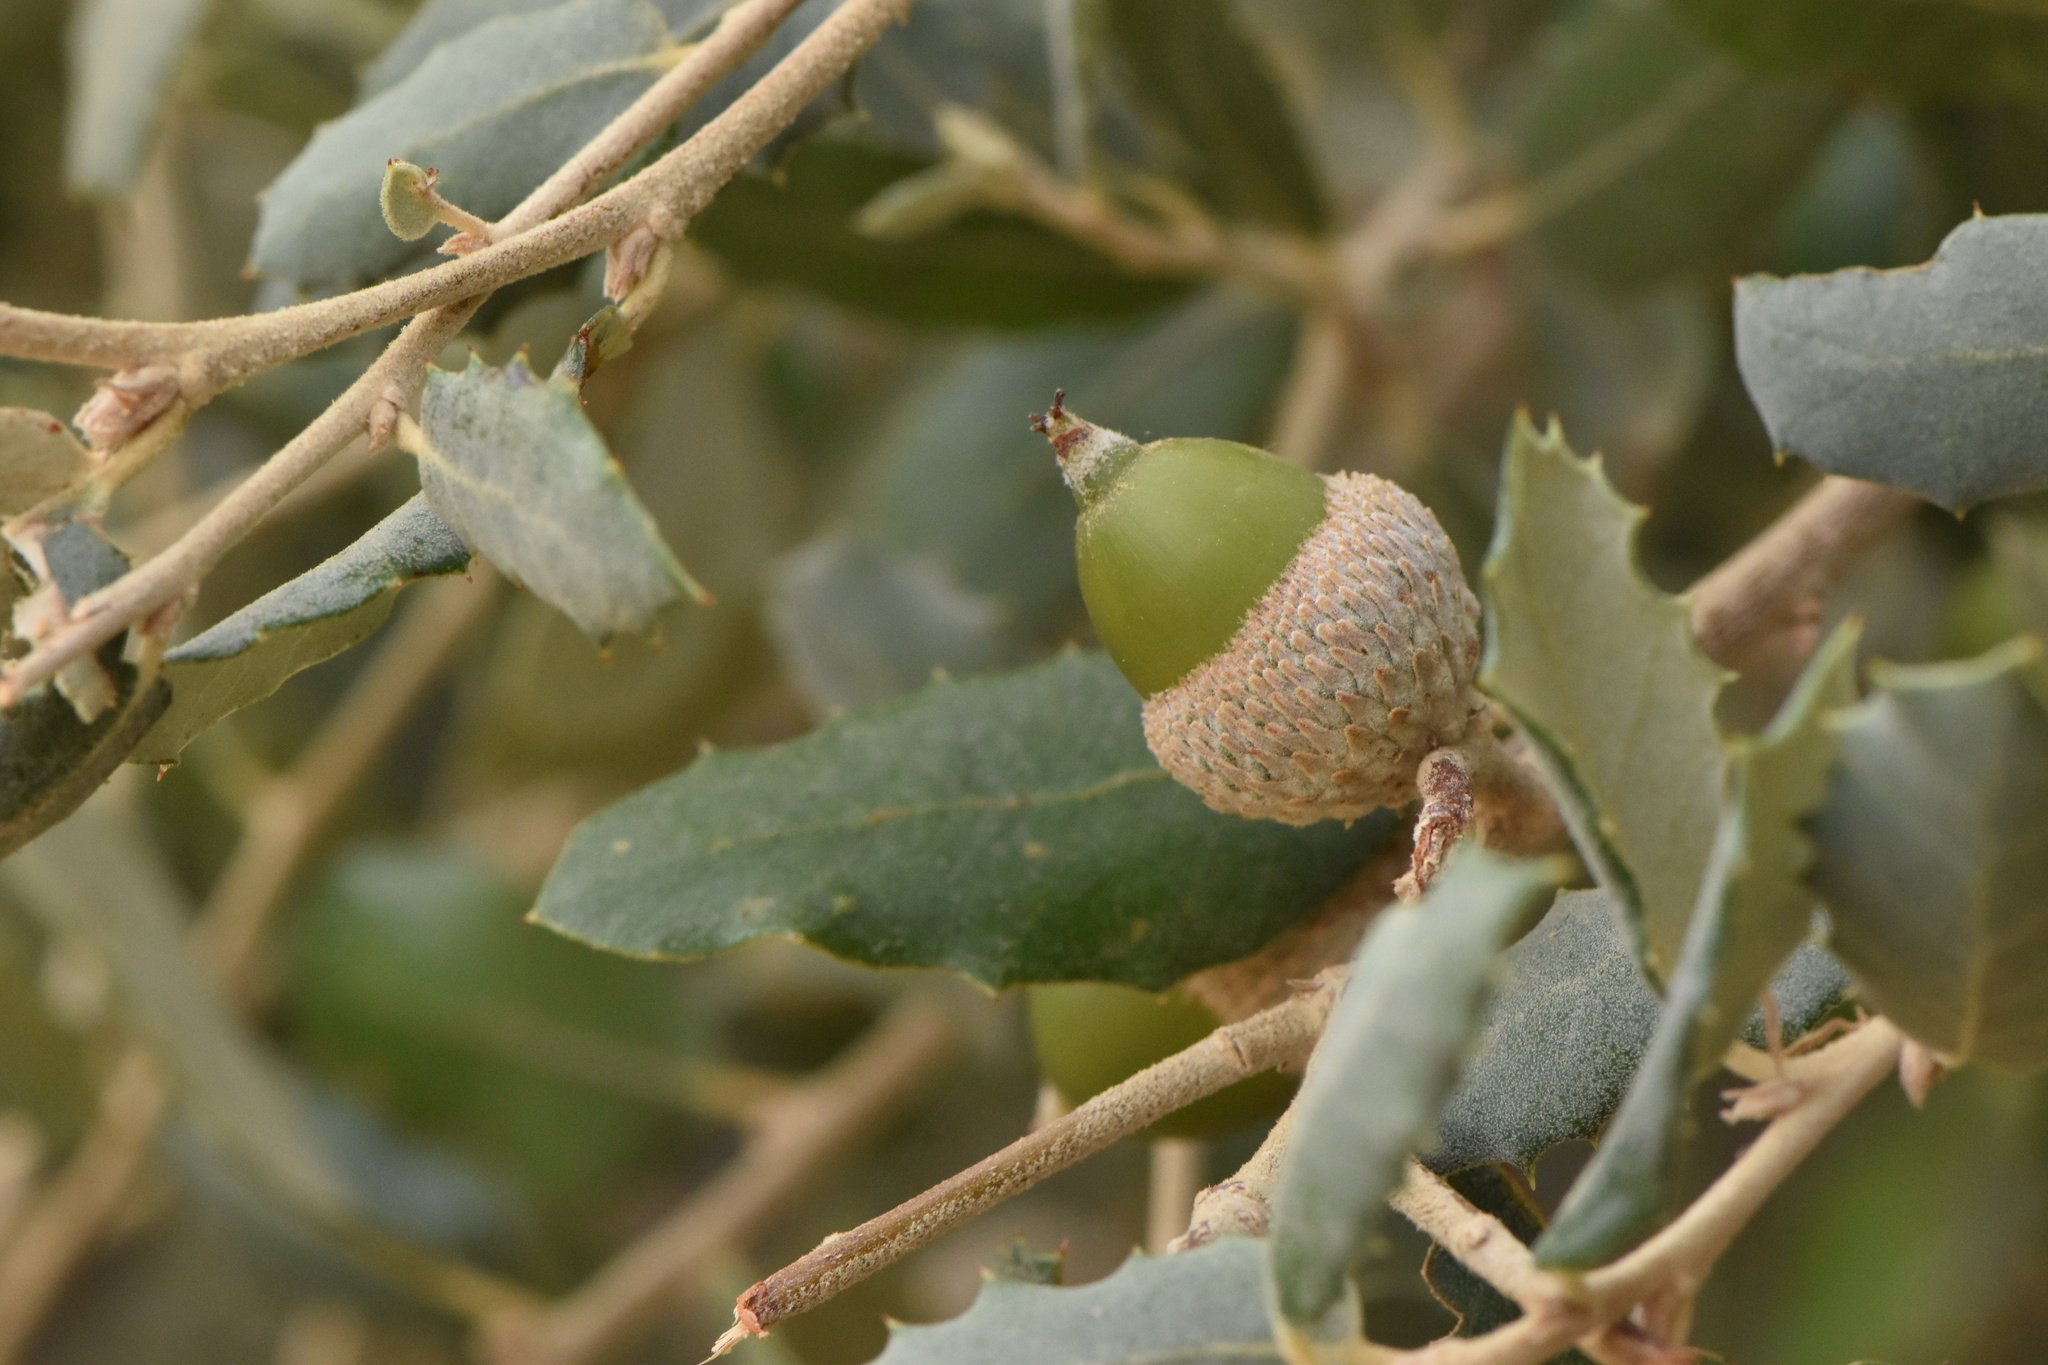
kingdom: Plantae
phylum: Tracheophyta
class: Magnoliopsida
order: Fagales
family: Fagaceae
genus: Quercus
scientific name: Quercus rotundifolia
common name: Holm oak
